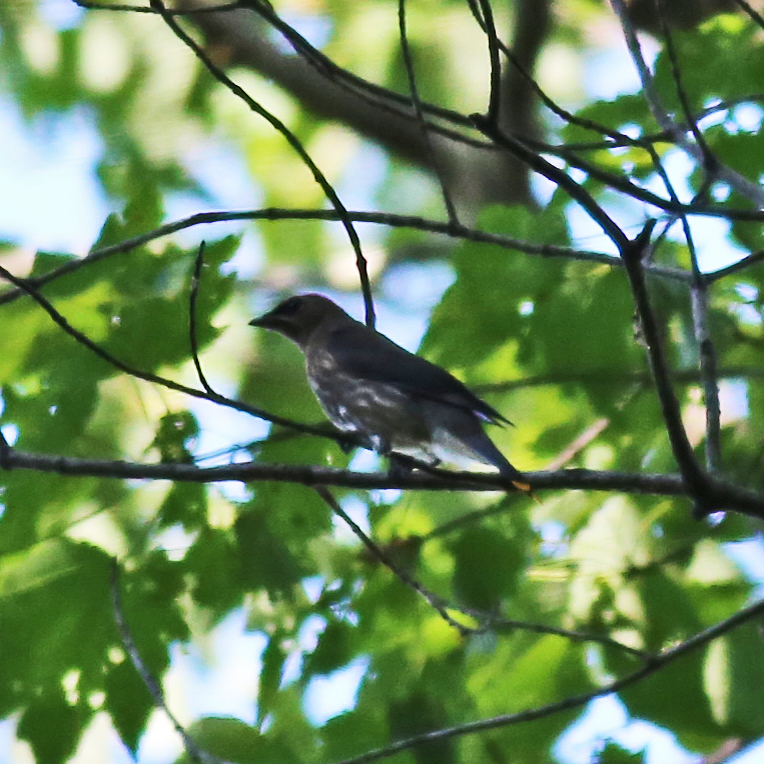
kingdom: Animalia
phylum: Chordata
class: Aves
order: Passeriformes
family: Bombycillidae
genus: Bombycilla
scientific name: Bombycilla cedrorum
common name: Cedar waxwing
